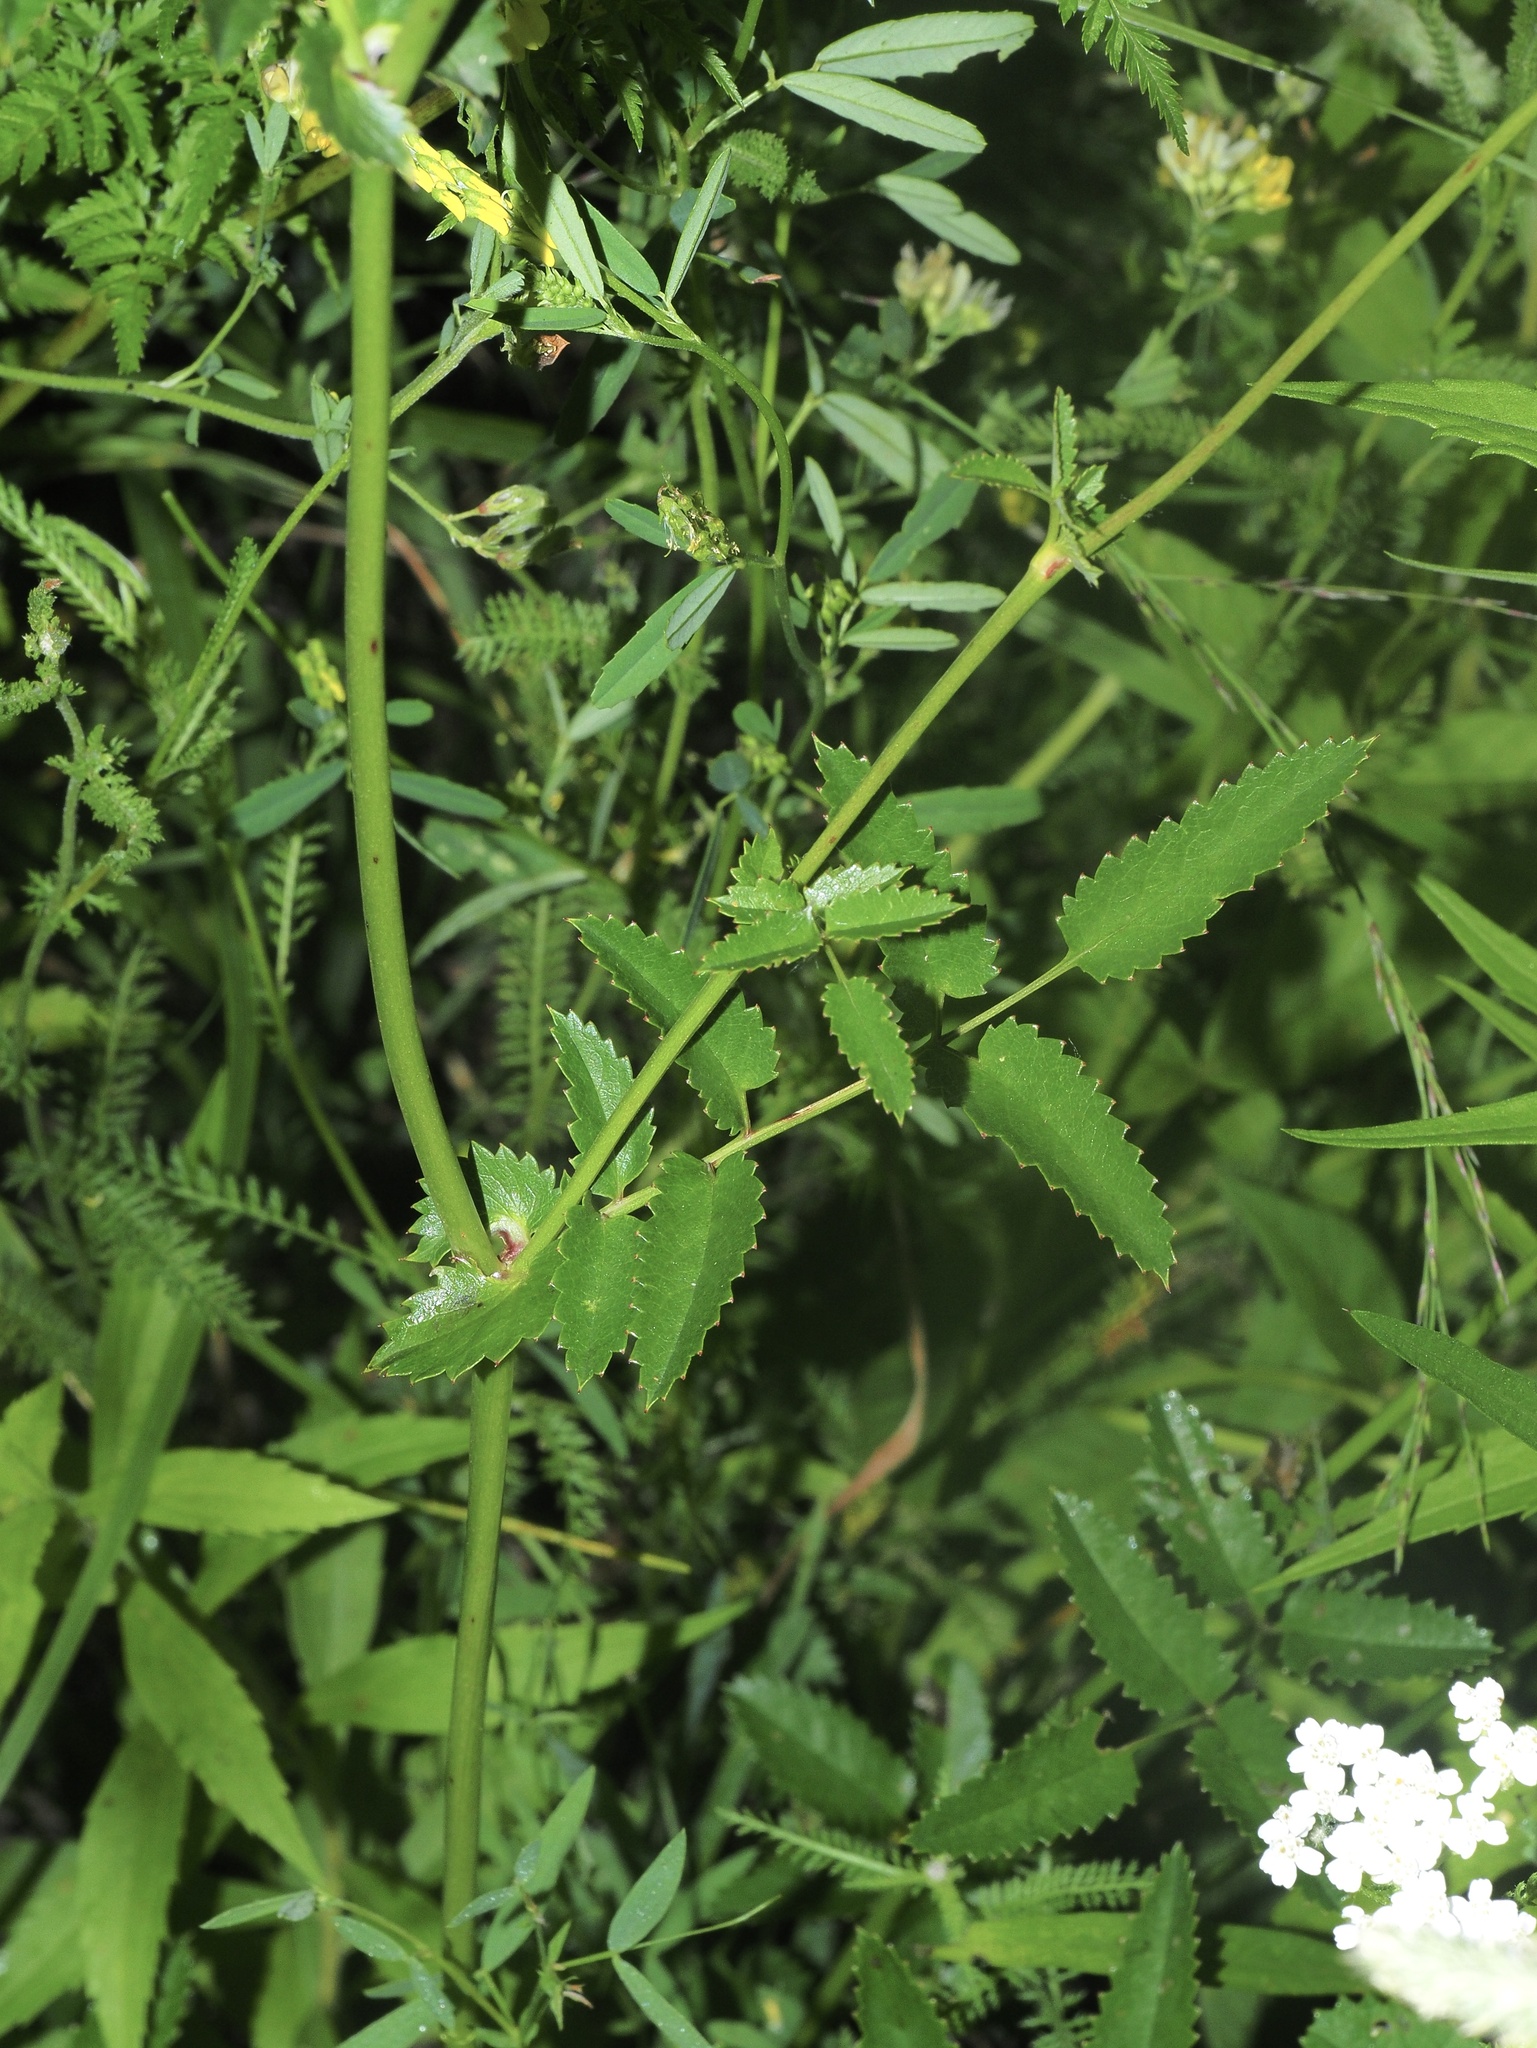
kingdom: Plantae
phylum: Tracheophyta
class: Magnoliopsida
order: Rosales
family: Rosaceae
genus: Sanguisorba
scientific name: Sanguisorba officinalis
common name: Great burnet
